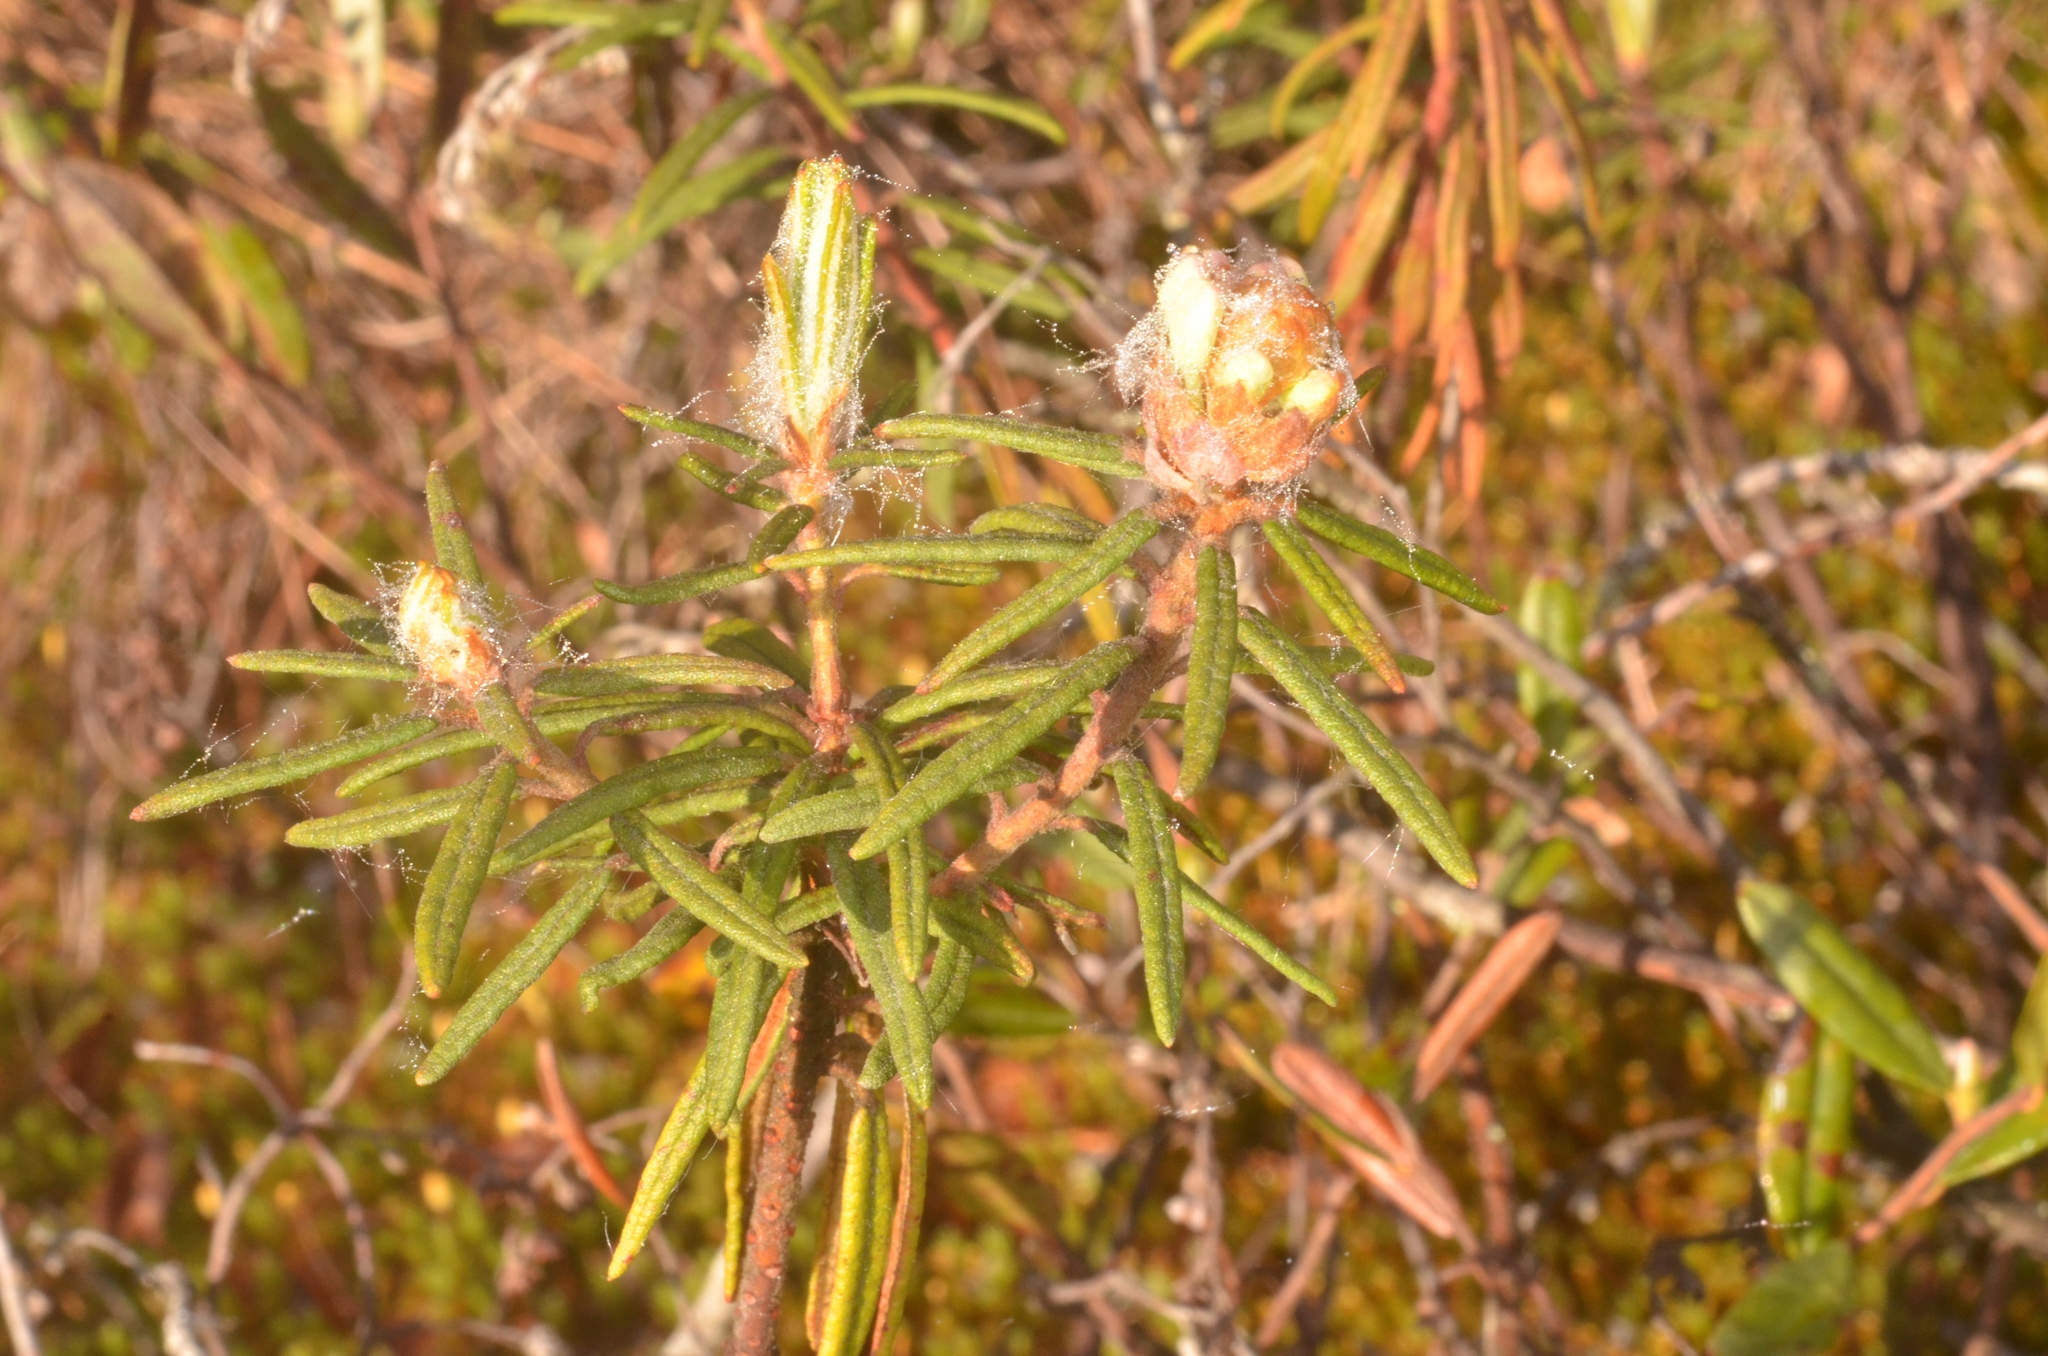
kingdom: Plantae
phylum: Tracheophyta
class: Magnoliopsida
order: Ericales
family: Ericaceae
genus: Rhododendron
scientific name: Rhododendron tomentosum
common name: Marsh labrador tea
